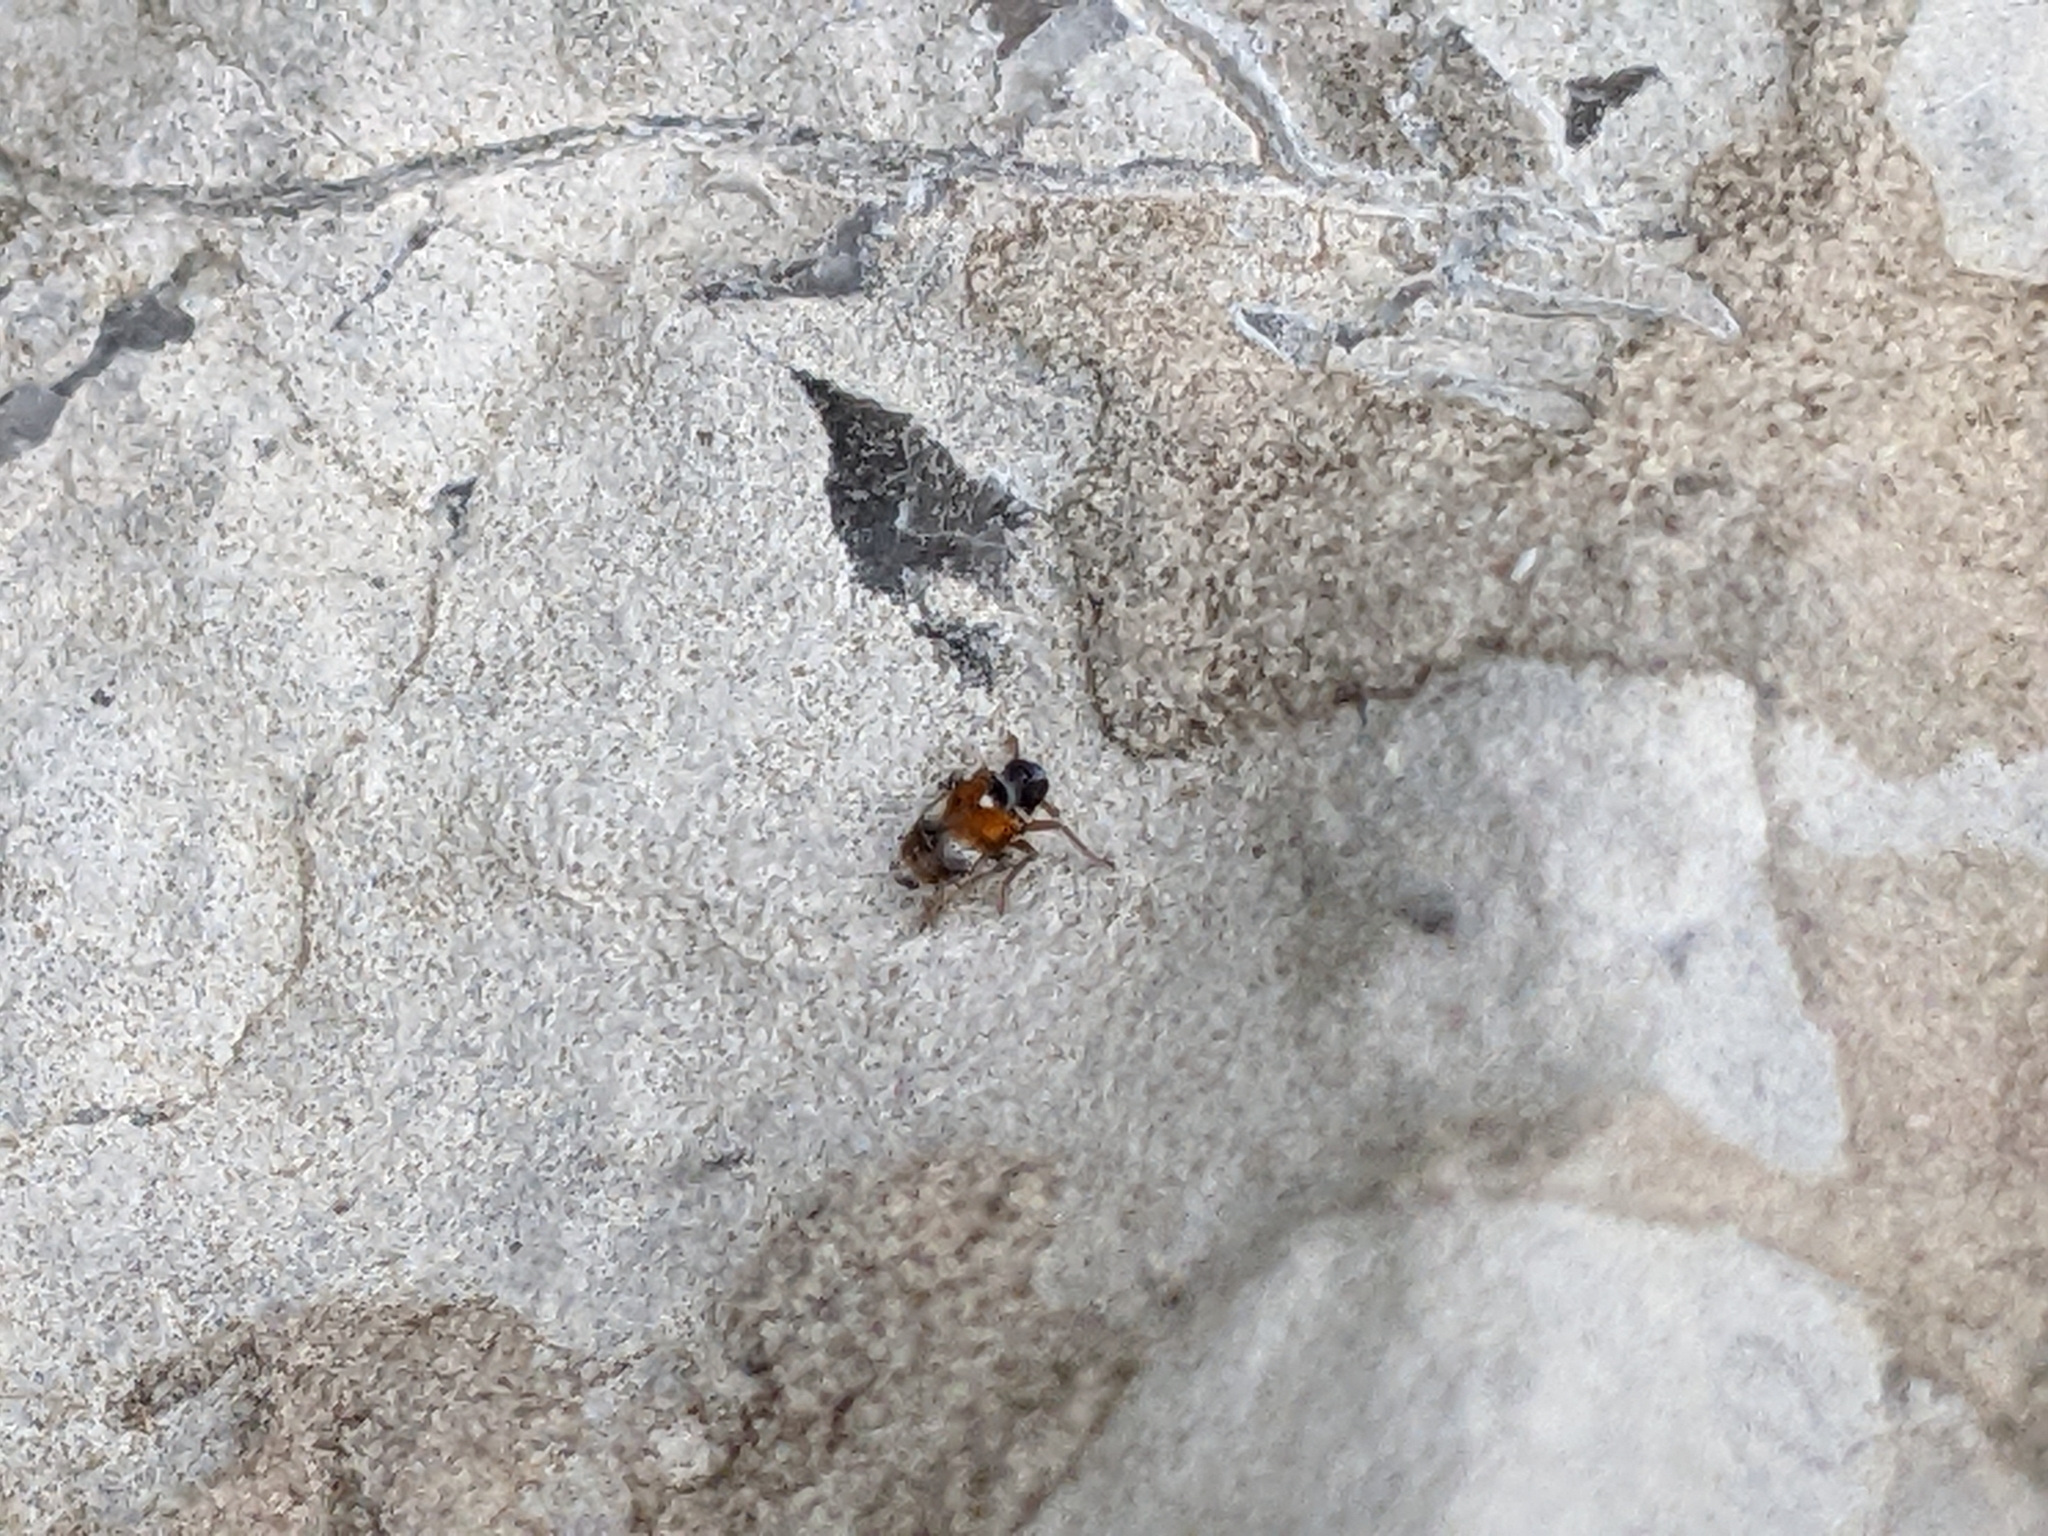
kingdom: Animalia
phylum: Arthropoda
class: Insecta
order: Hemiptera
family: Delphacidae
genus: Flavoclypeus
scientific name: Flavoclypeus andromedus
